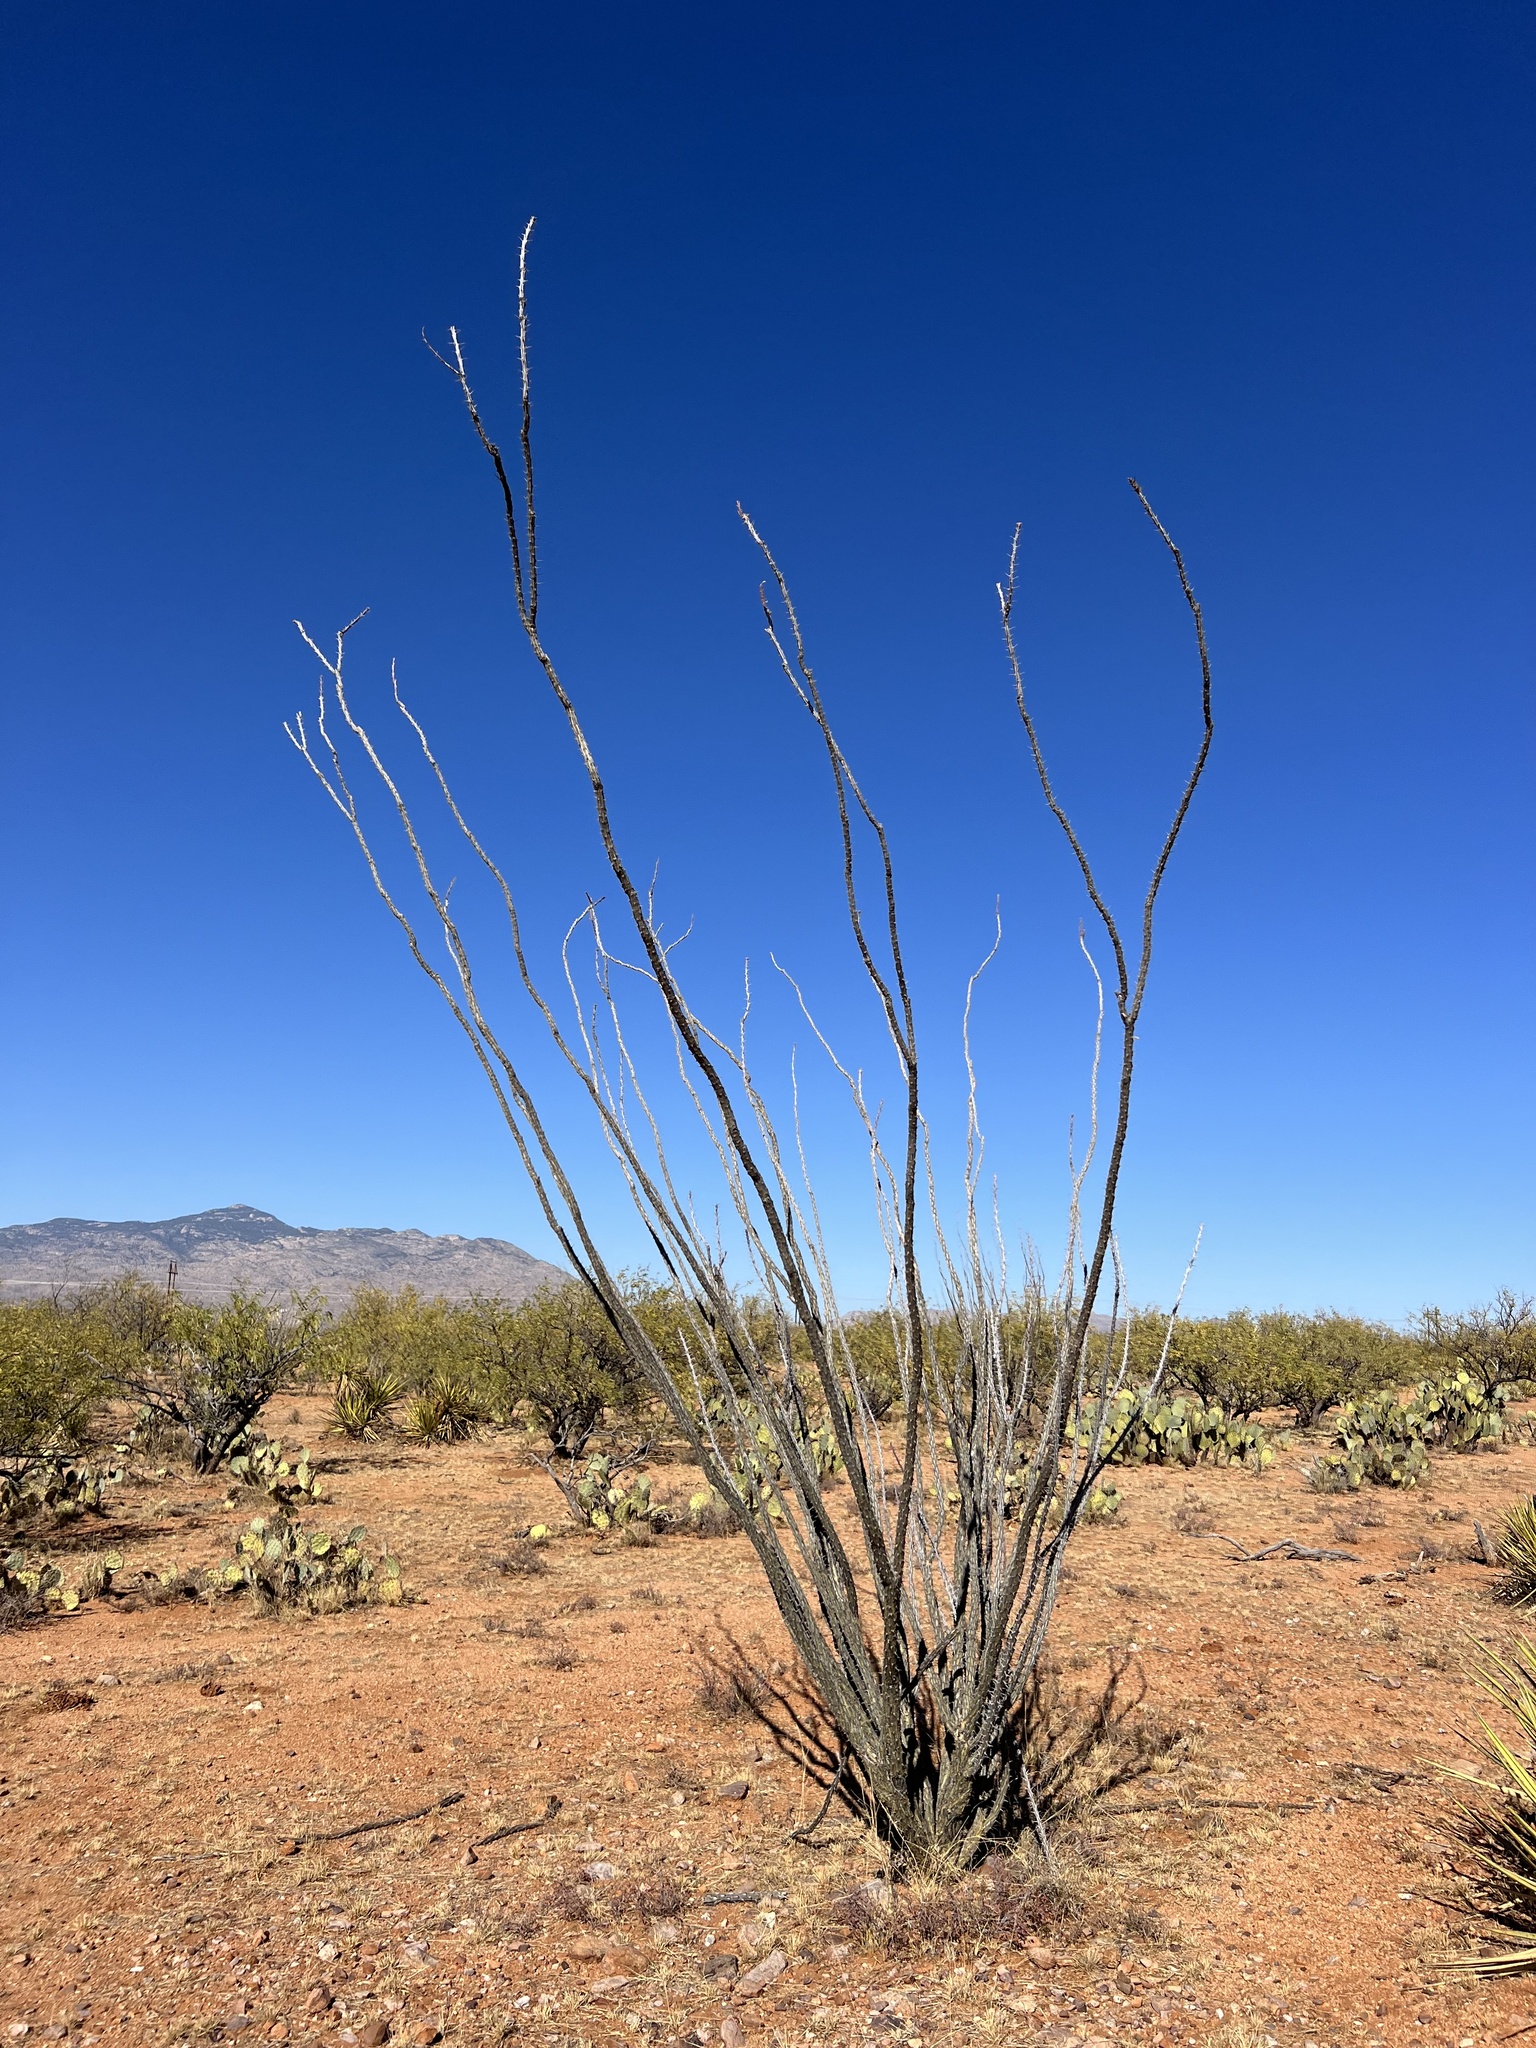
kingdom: Plantae
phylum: Tracheophyta
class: Magnoliopsida
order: Ericales
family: Fouquieriaceae
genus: Fouquieria
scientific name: Fouquieria splendens
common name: Vine-cactus
